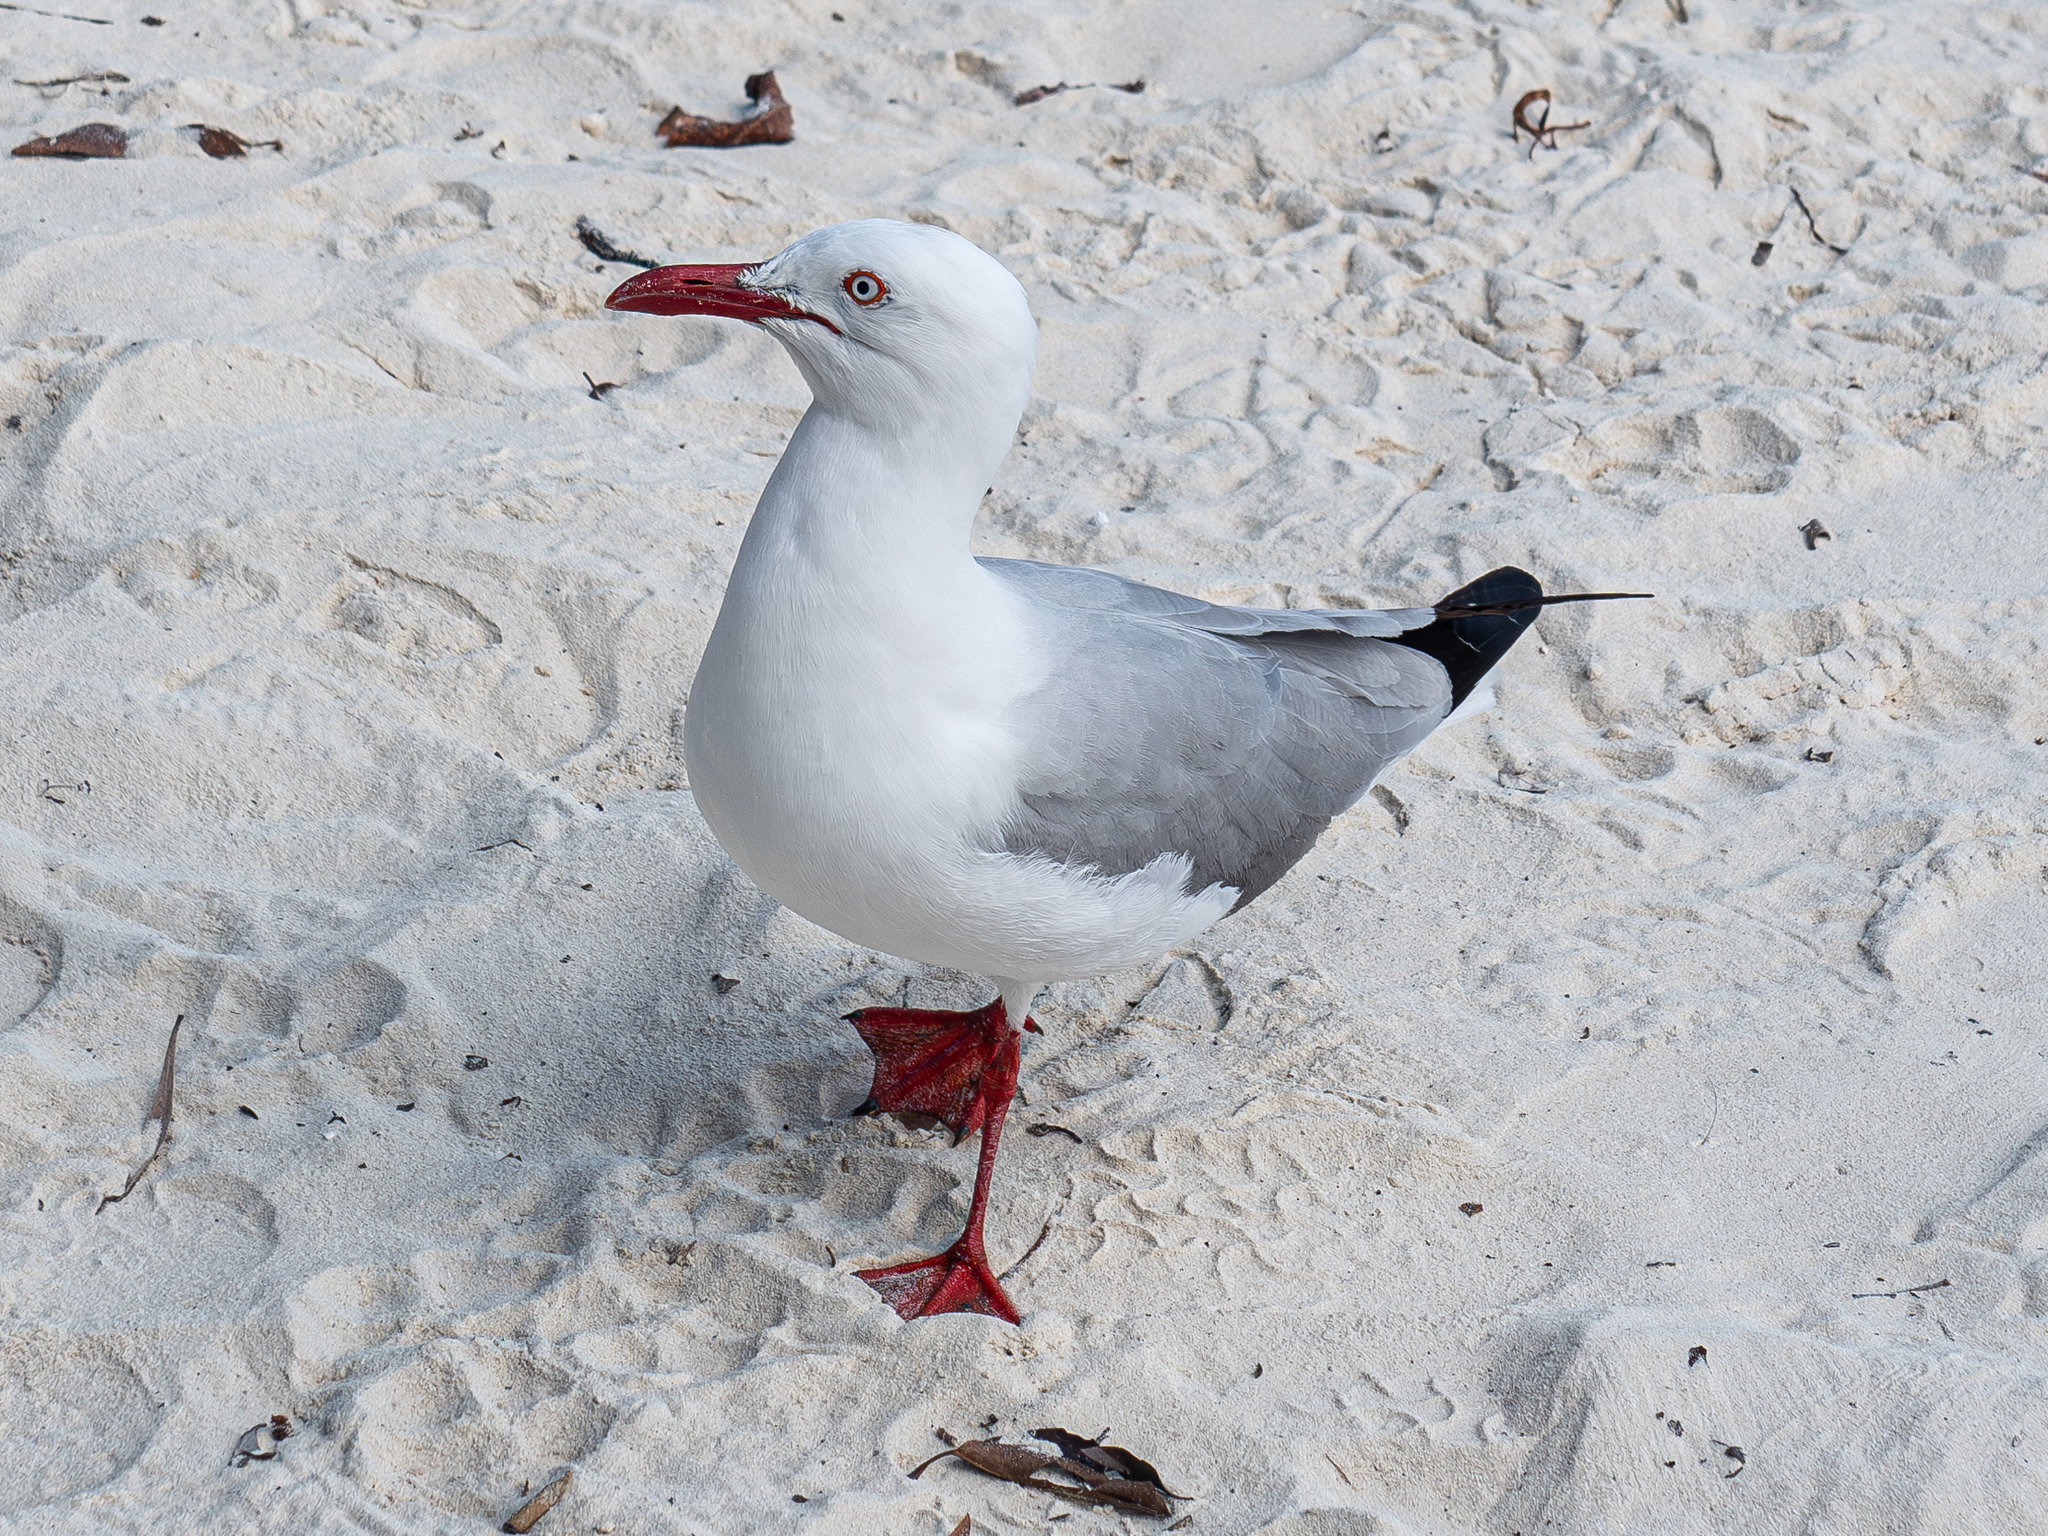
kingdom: Animalia
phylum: Chordata
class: Aves
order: Charadriiformes
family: Laridae
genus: Chroicocephalus
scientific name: Chroicocephalus novaehollandiae
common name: Silver gull
